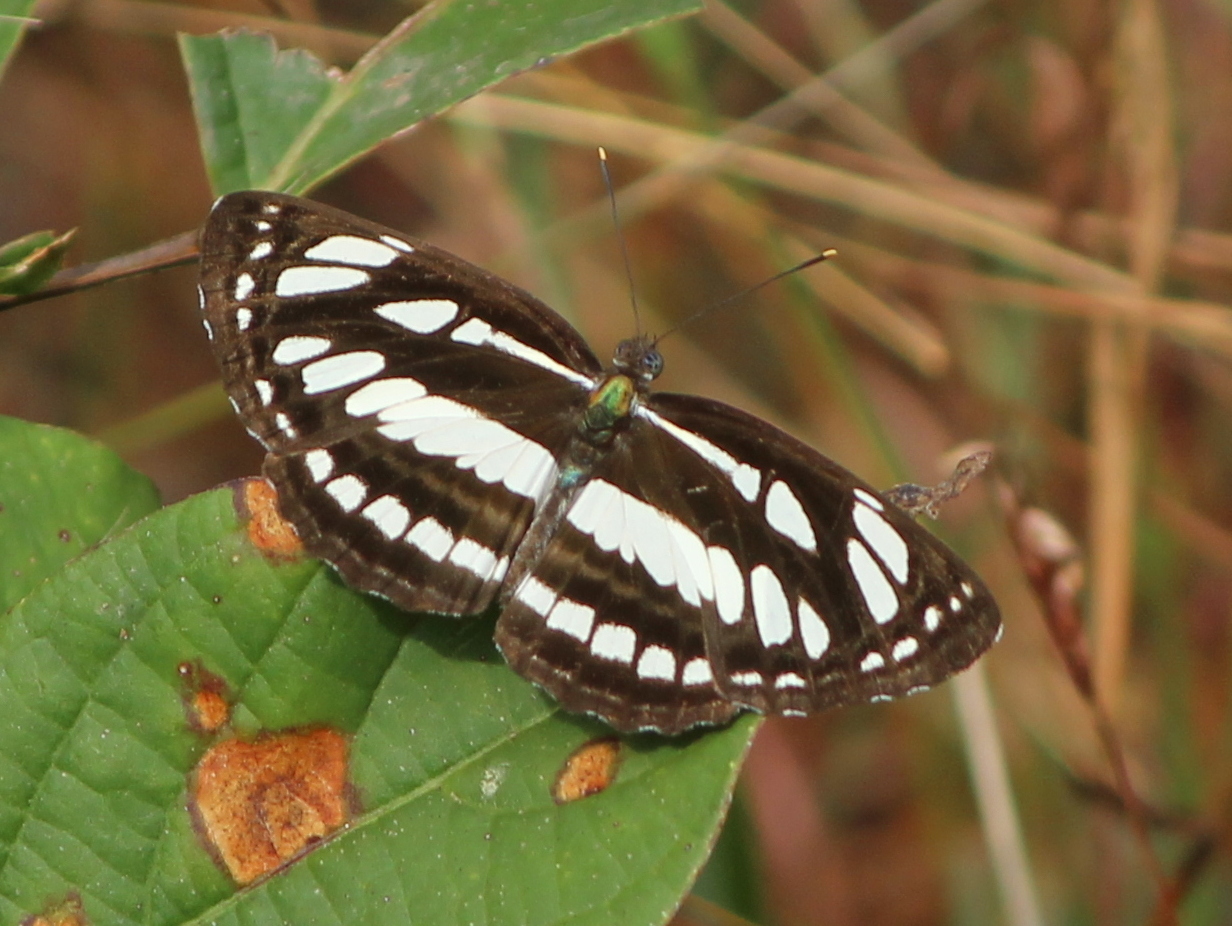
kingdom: Animalia
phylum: Arthropoda
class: Insecta
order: Lepidoptera
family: Nymphalidae
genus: Neptis
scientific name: Neptis hylas
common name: Common sailer
